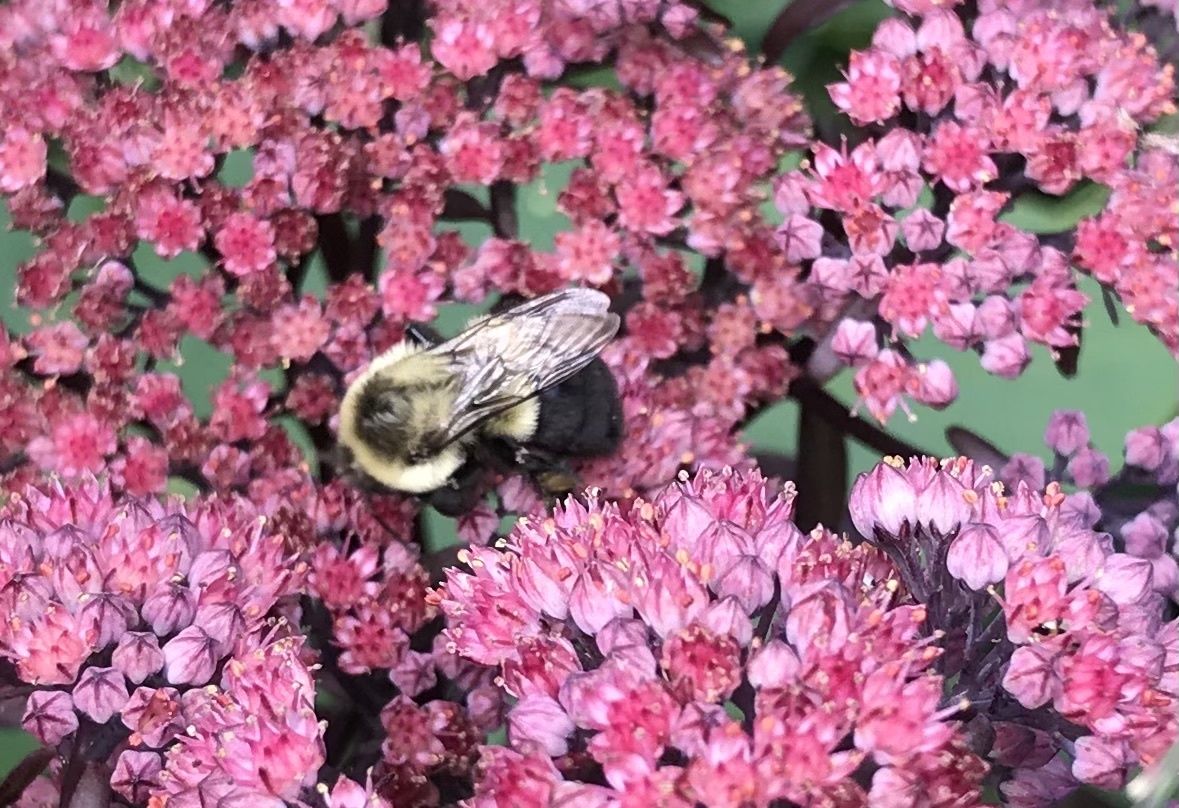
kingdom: Animalia
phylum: Arthropoda
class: Insecta
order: Hymenoptera
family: Apidae
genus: Bombus
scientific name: Bombus impatiens
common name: Common eastern bumble bee
